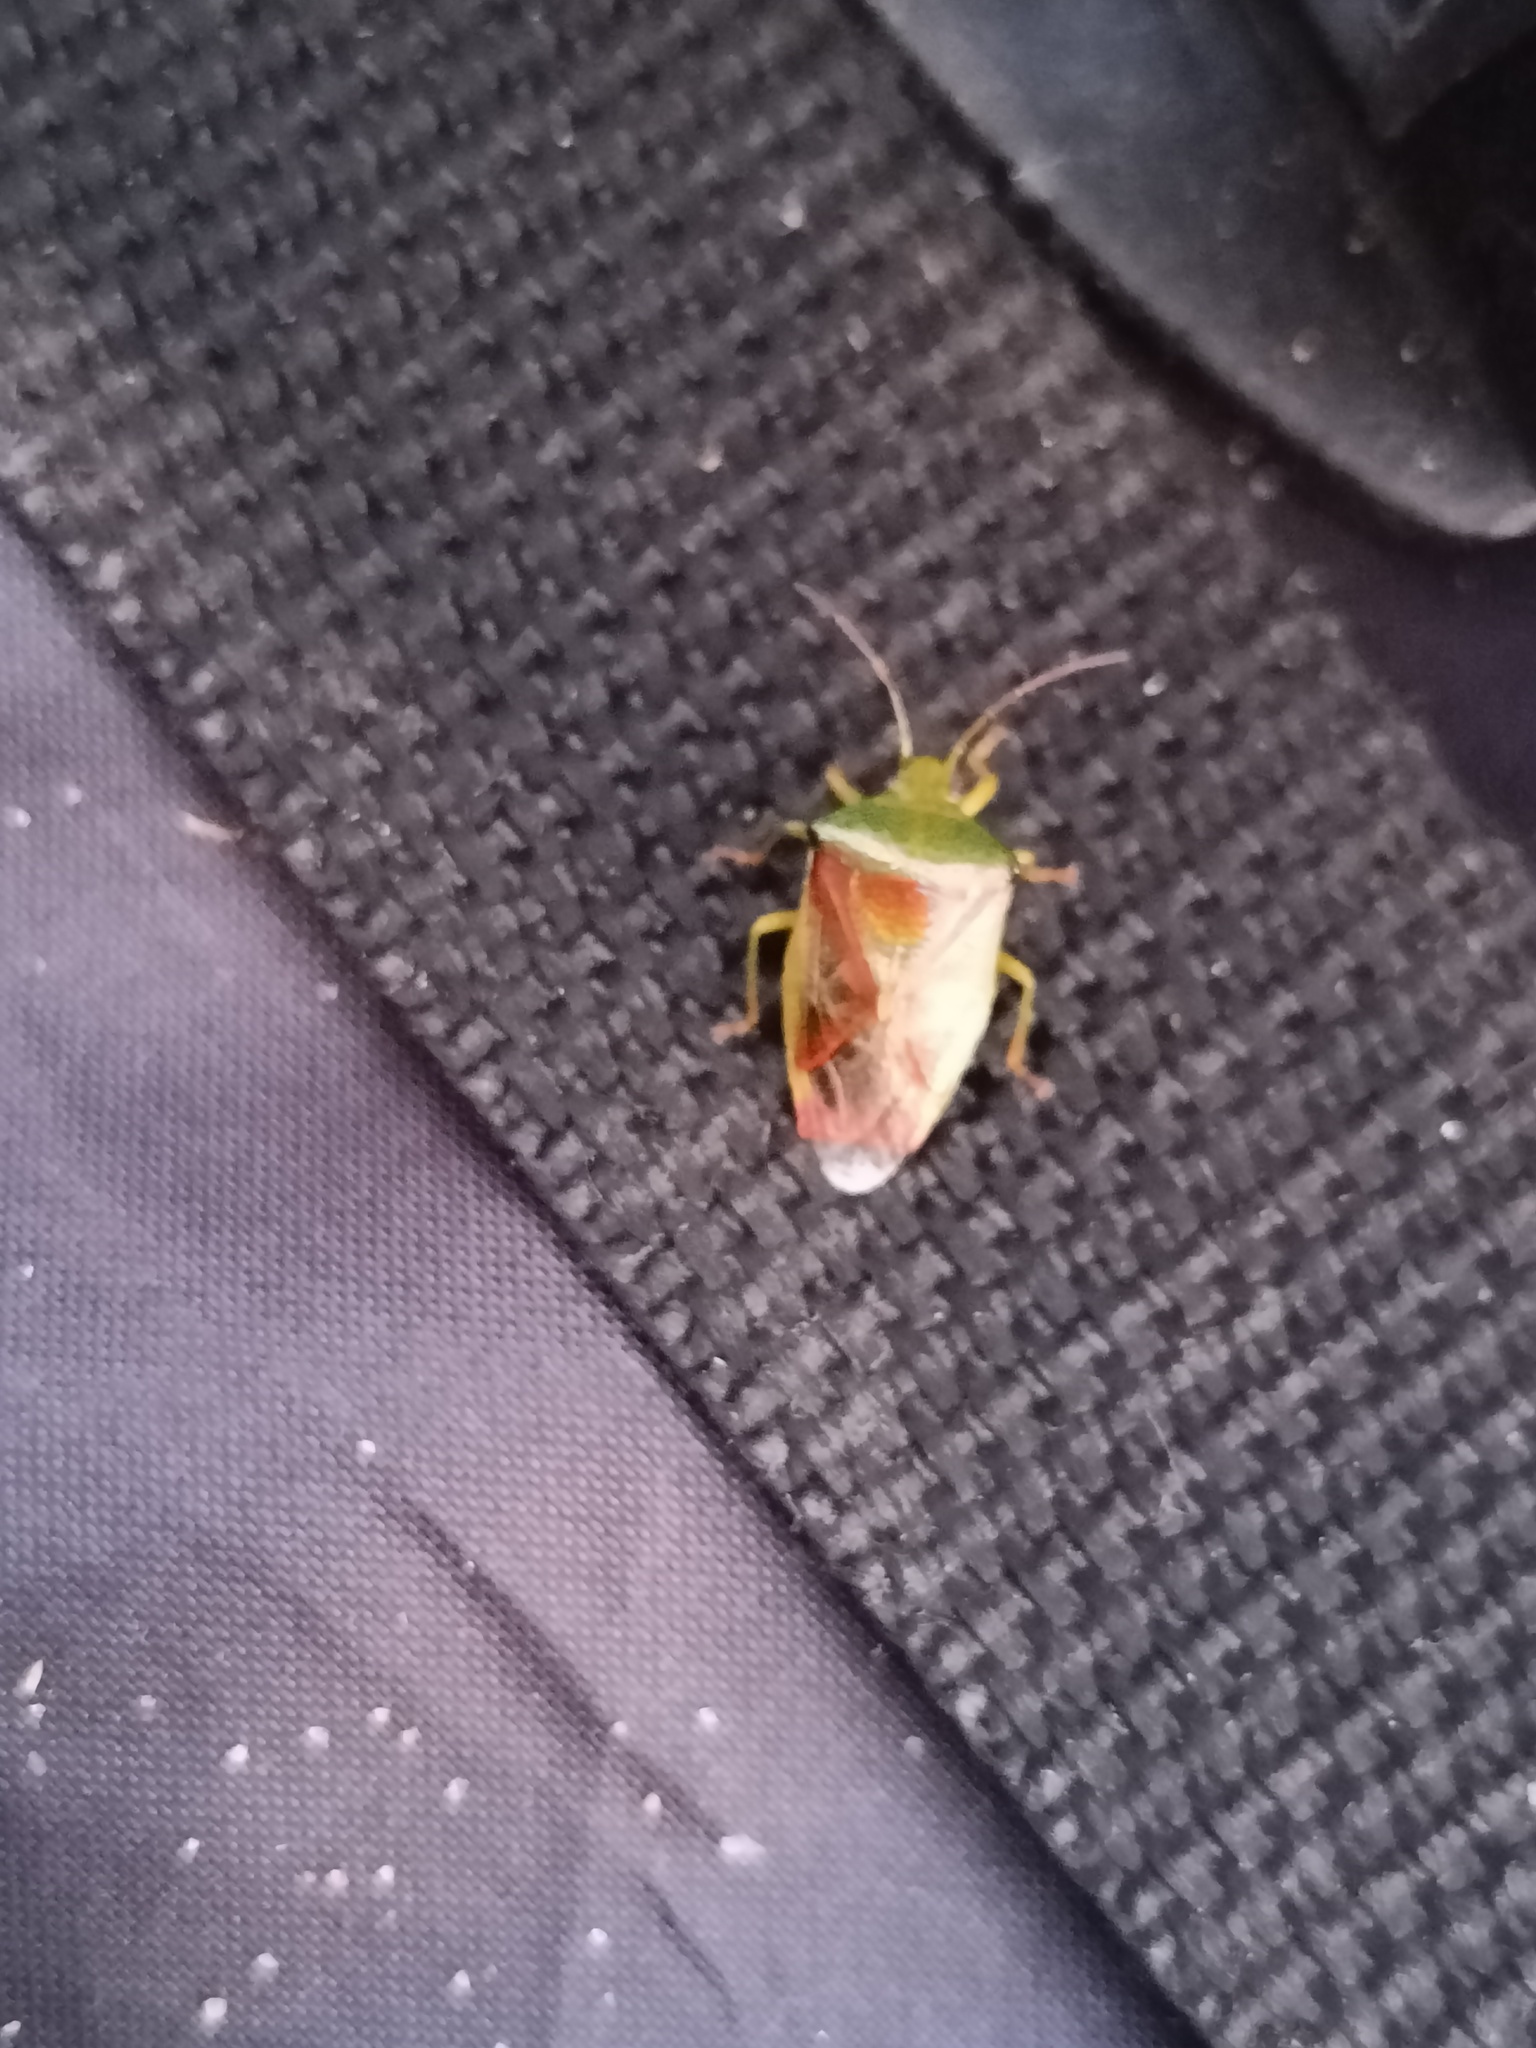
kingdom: Animalia
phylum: Arthropoda
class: Insecta
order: Hemiptera
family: Acanthosomatidae
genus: Elasmostethus
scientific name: Elasmostethus interstinctus
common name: Birch shieldbug
